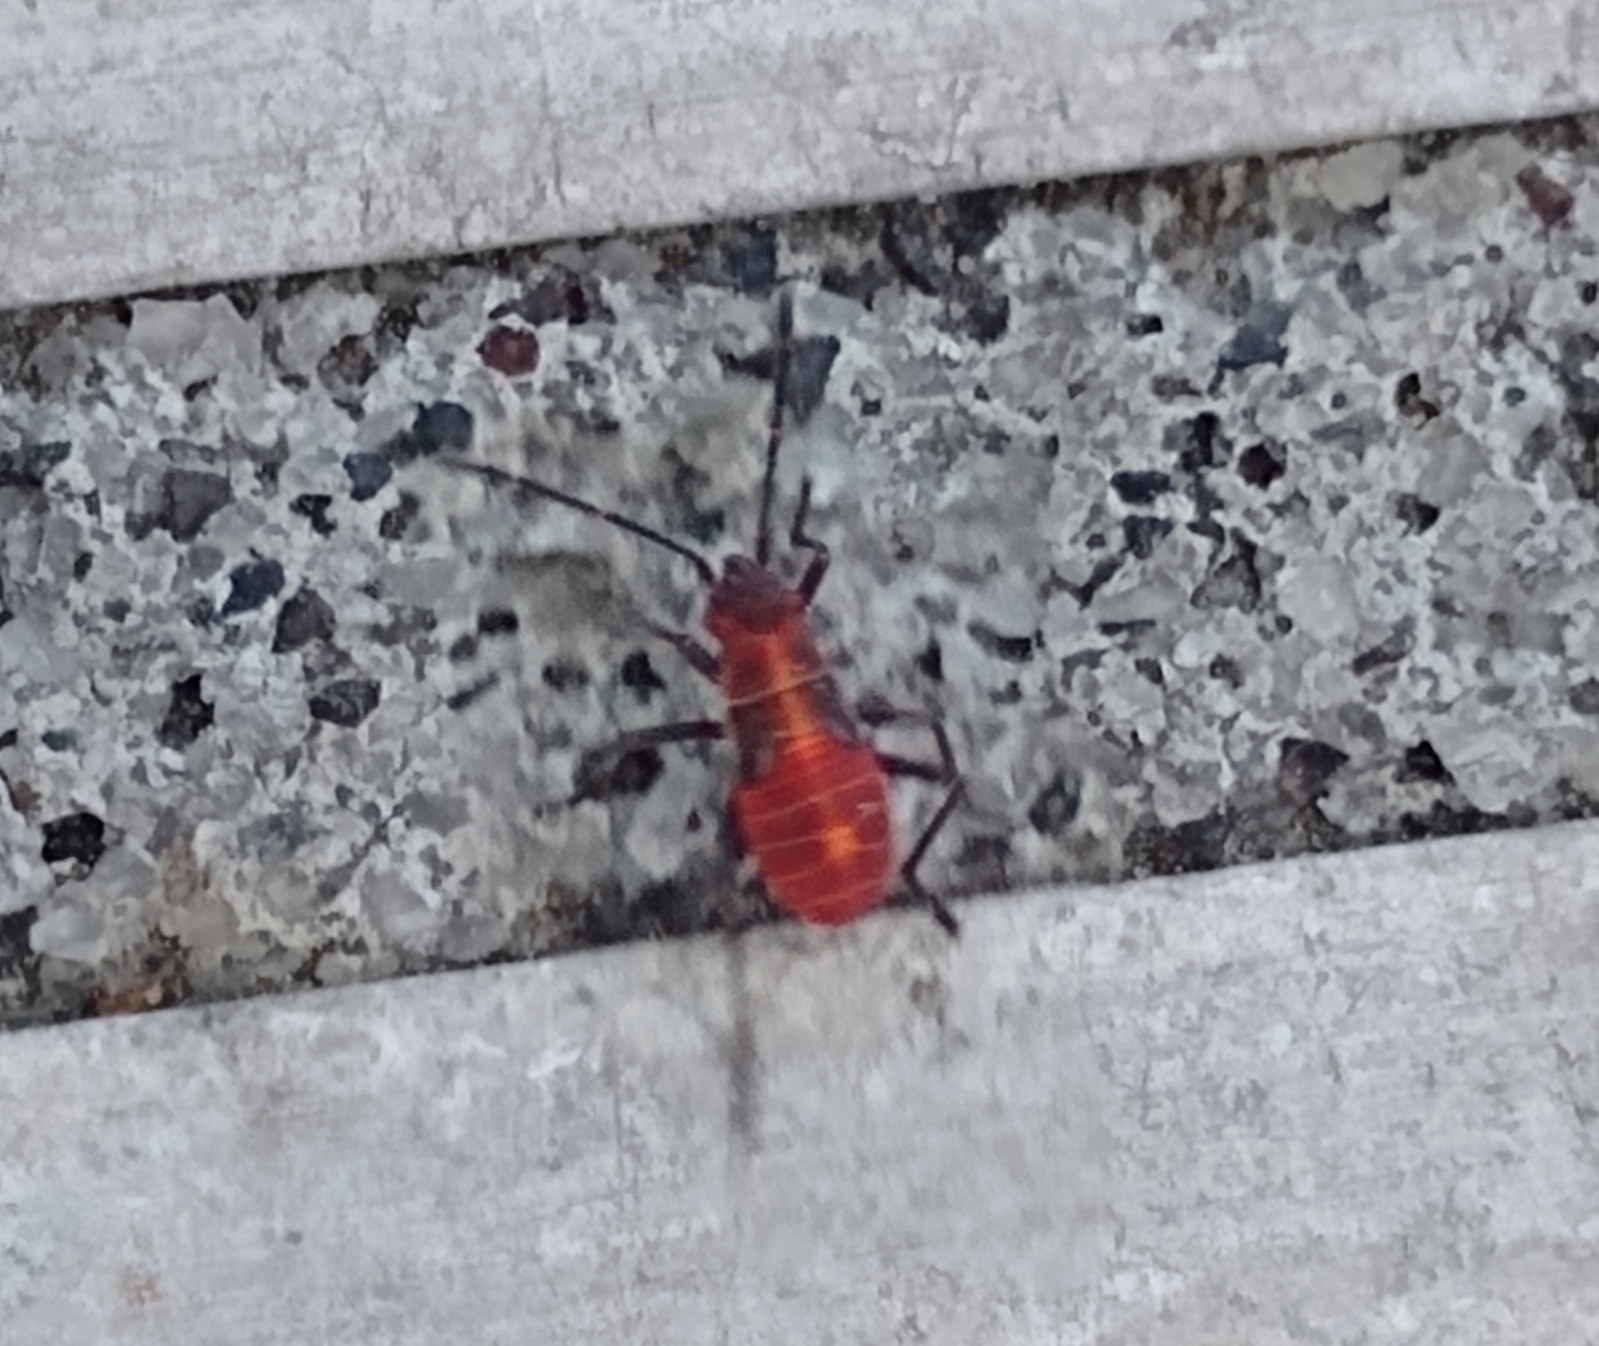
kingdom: Animalia
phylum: Arthropoda
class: Insecta
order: Hemiptera
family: Rhopalidae
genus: Boisea
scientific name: Boisea rubrolineata
